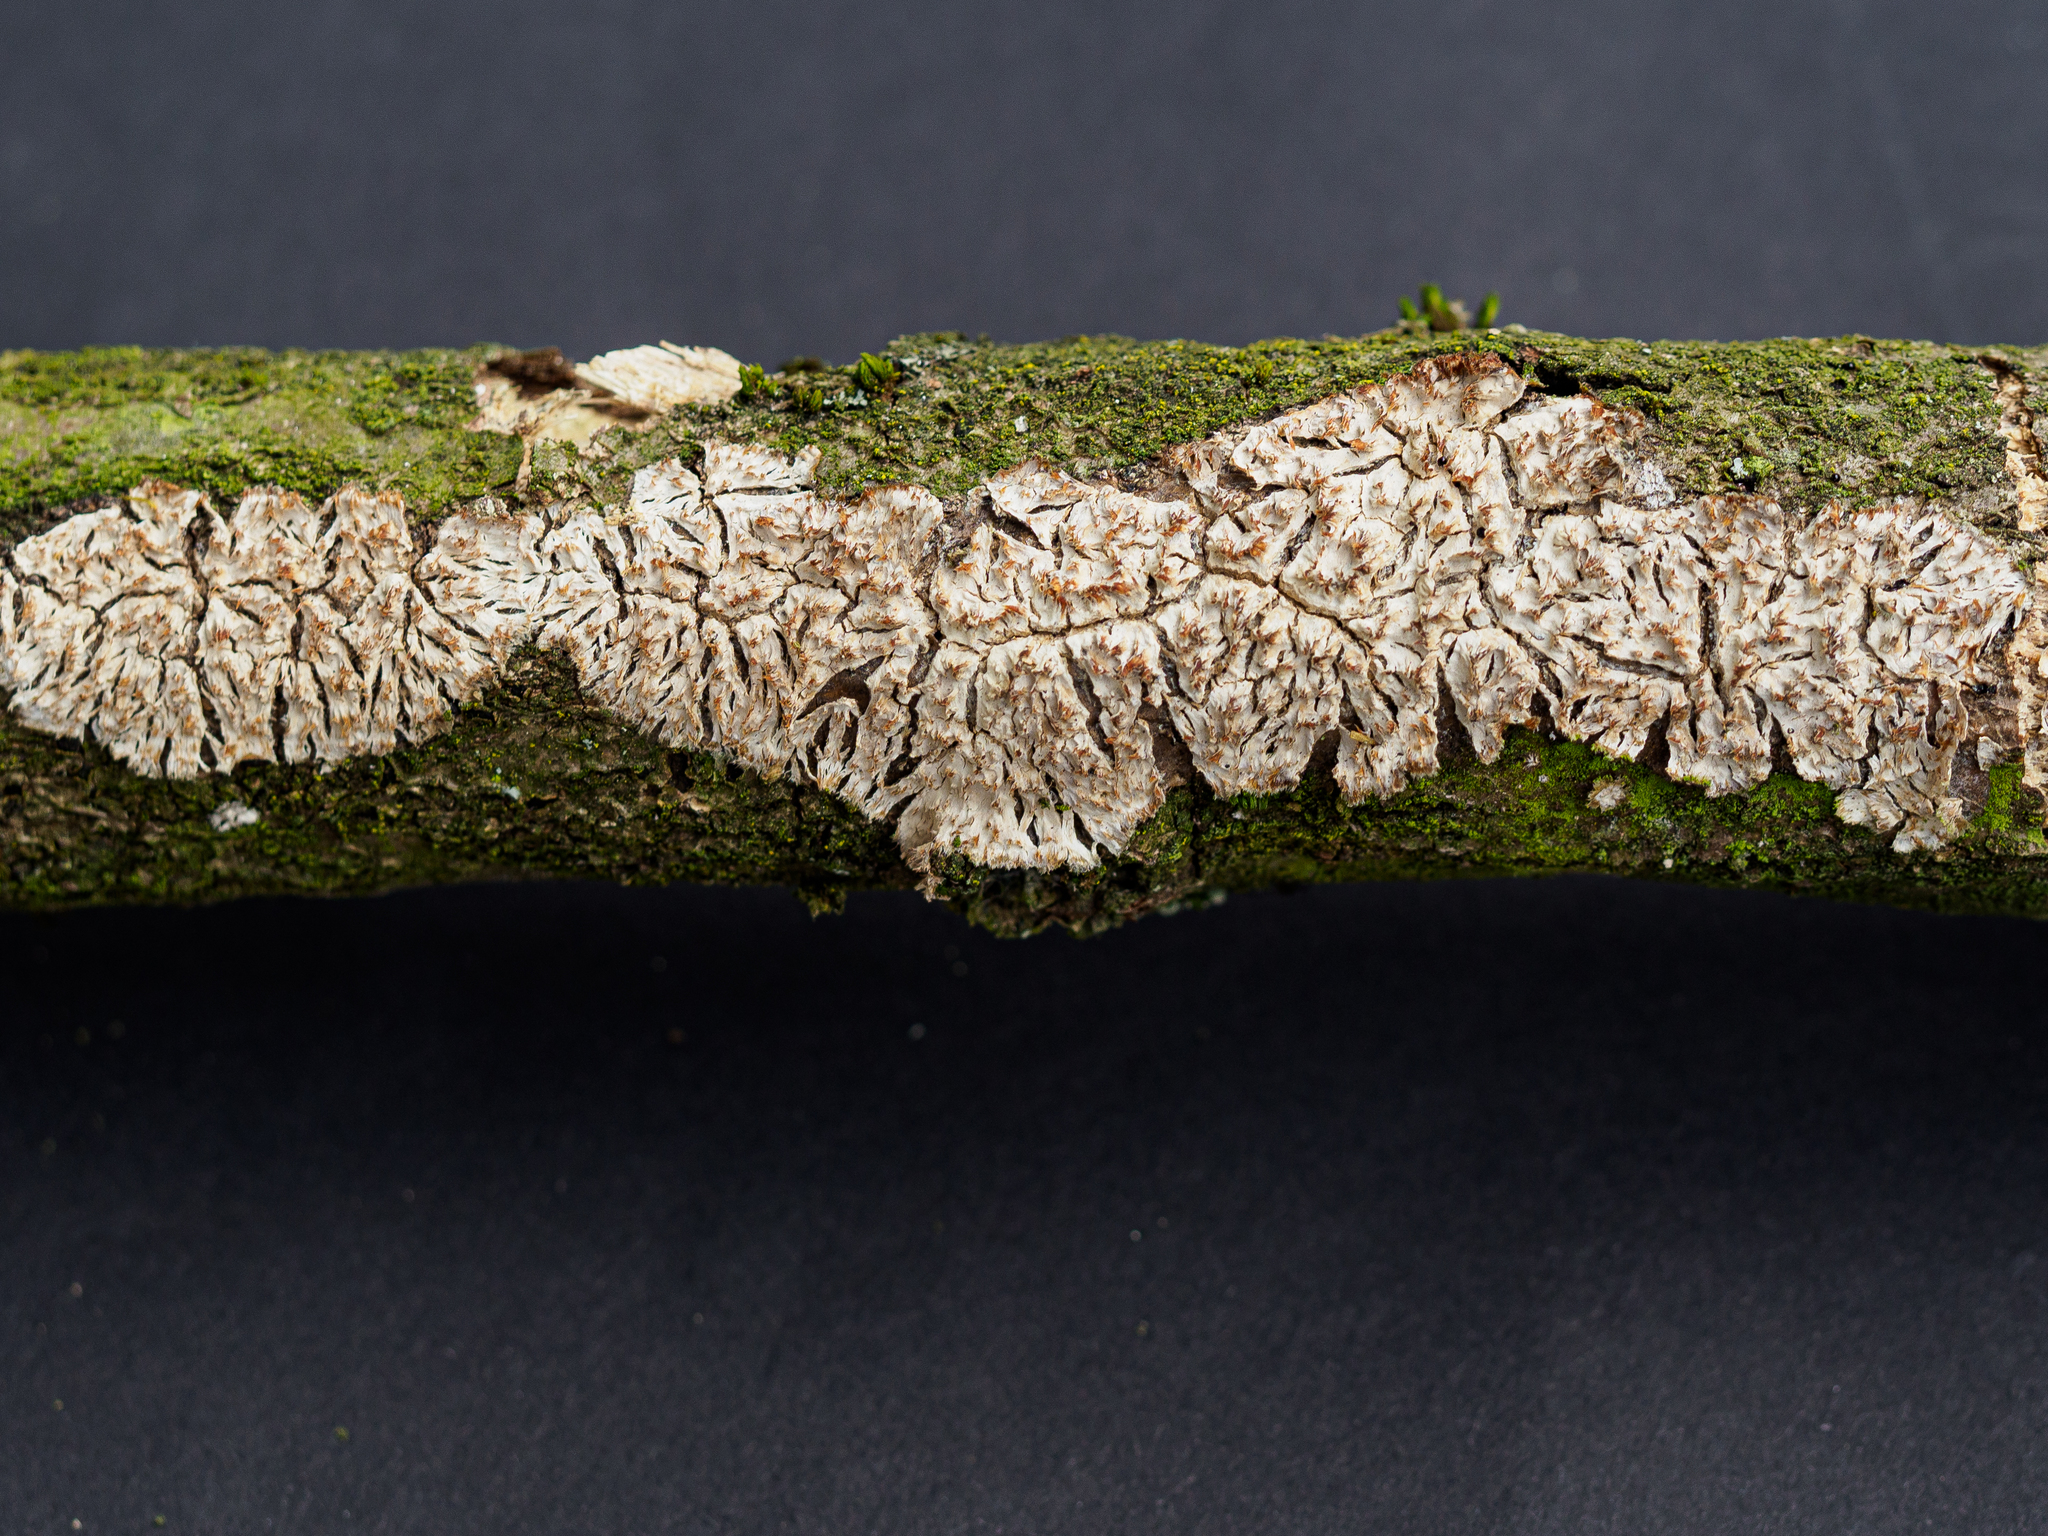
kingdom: Fungi
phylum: Basidiomycota
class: Agaricomycetes
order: Agaricales
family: Radulomycetaceae
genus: Radulomyces
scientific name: Radulomyces molaris
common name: Oak toothcrust
